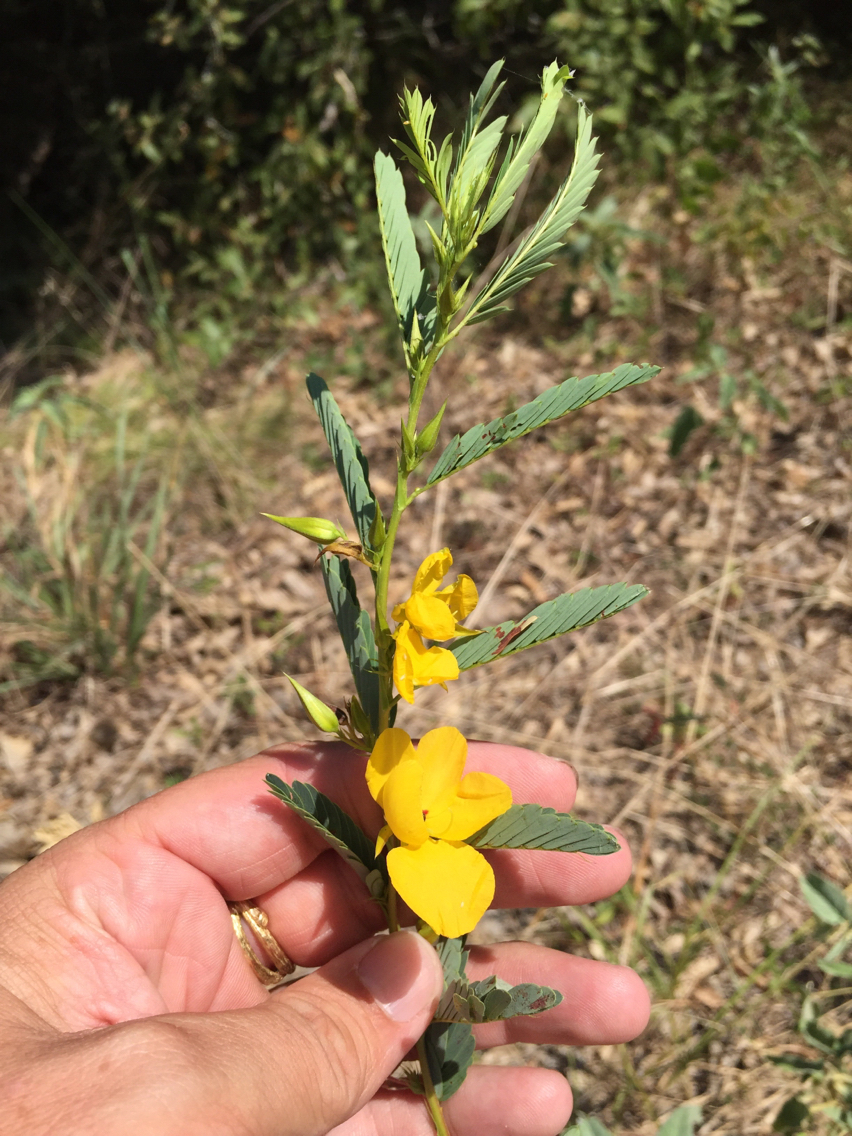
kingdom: Plantae
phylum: Tracheophyta
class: Magnoliopsida
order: Fabales
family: Fabaceae
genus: Chamaecrista
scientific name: Chamaecrista fasciculata
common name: Golden cassia
